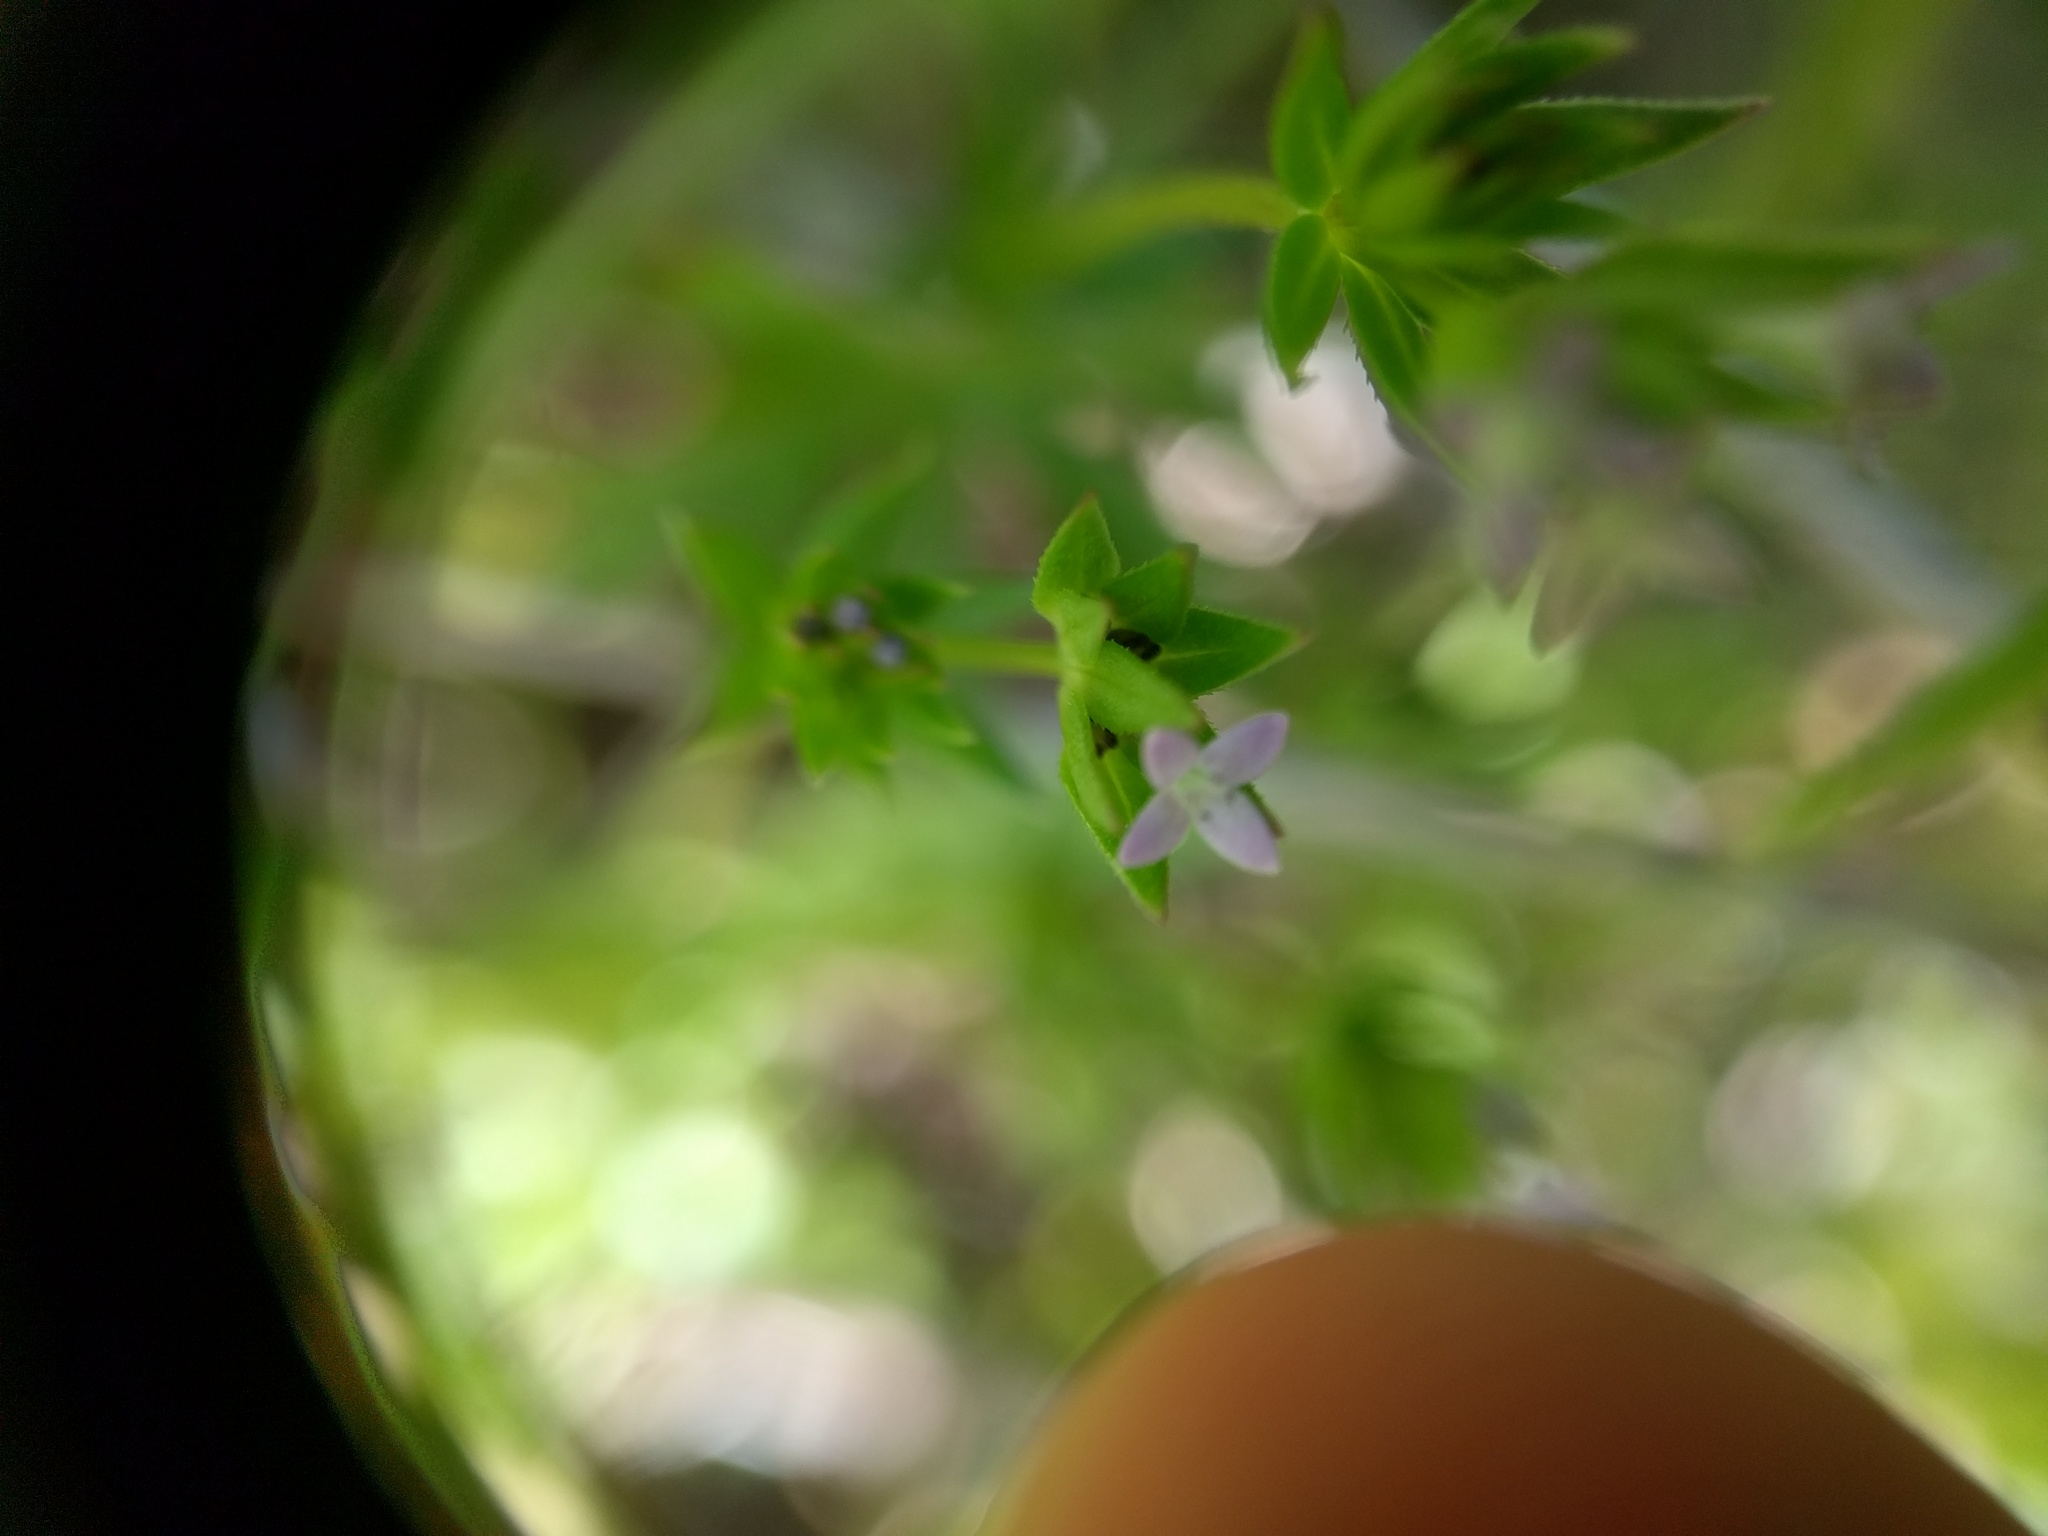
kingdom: Plantae
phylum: Tracheophyta
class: Magnoliopsida
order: Gentianales
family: Rubiaceae
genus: Sherardia
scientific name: Sherardia arvensis
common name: Field madder
